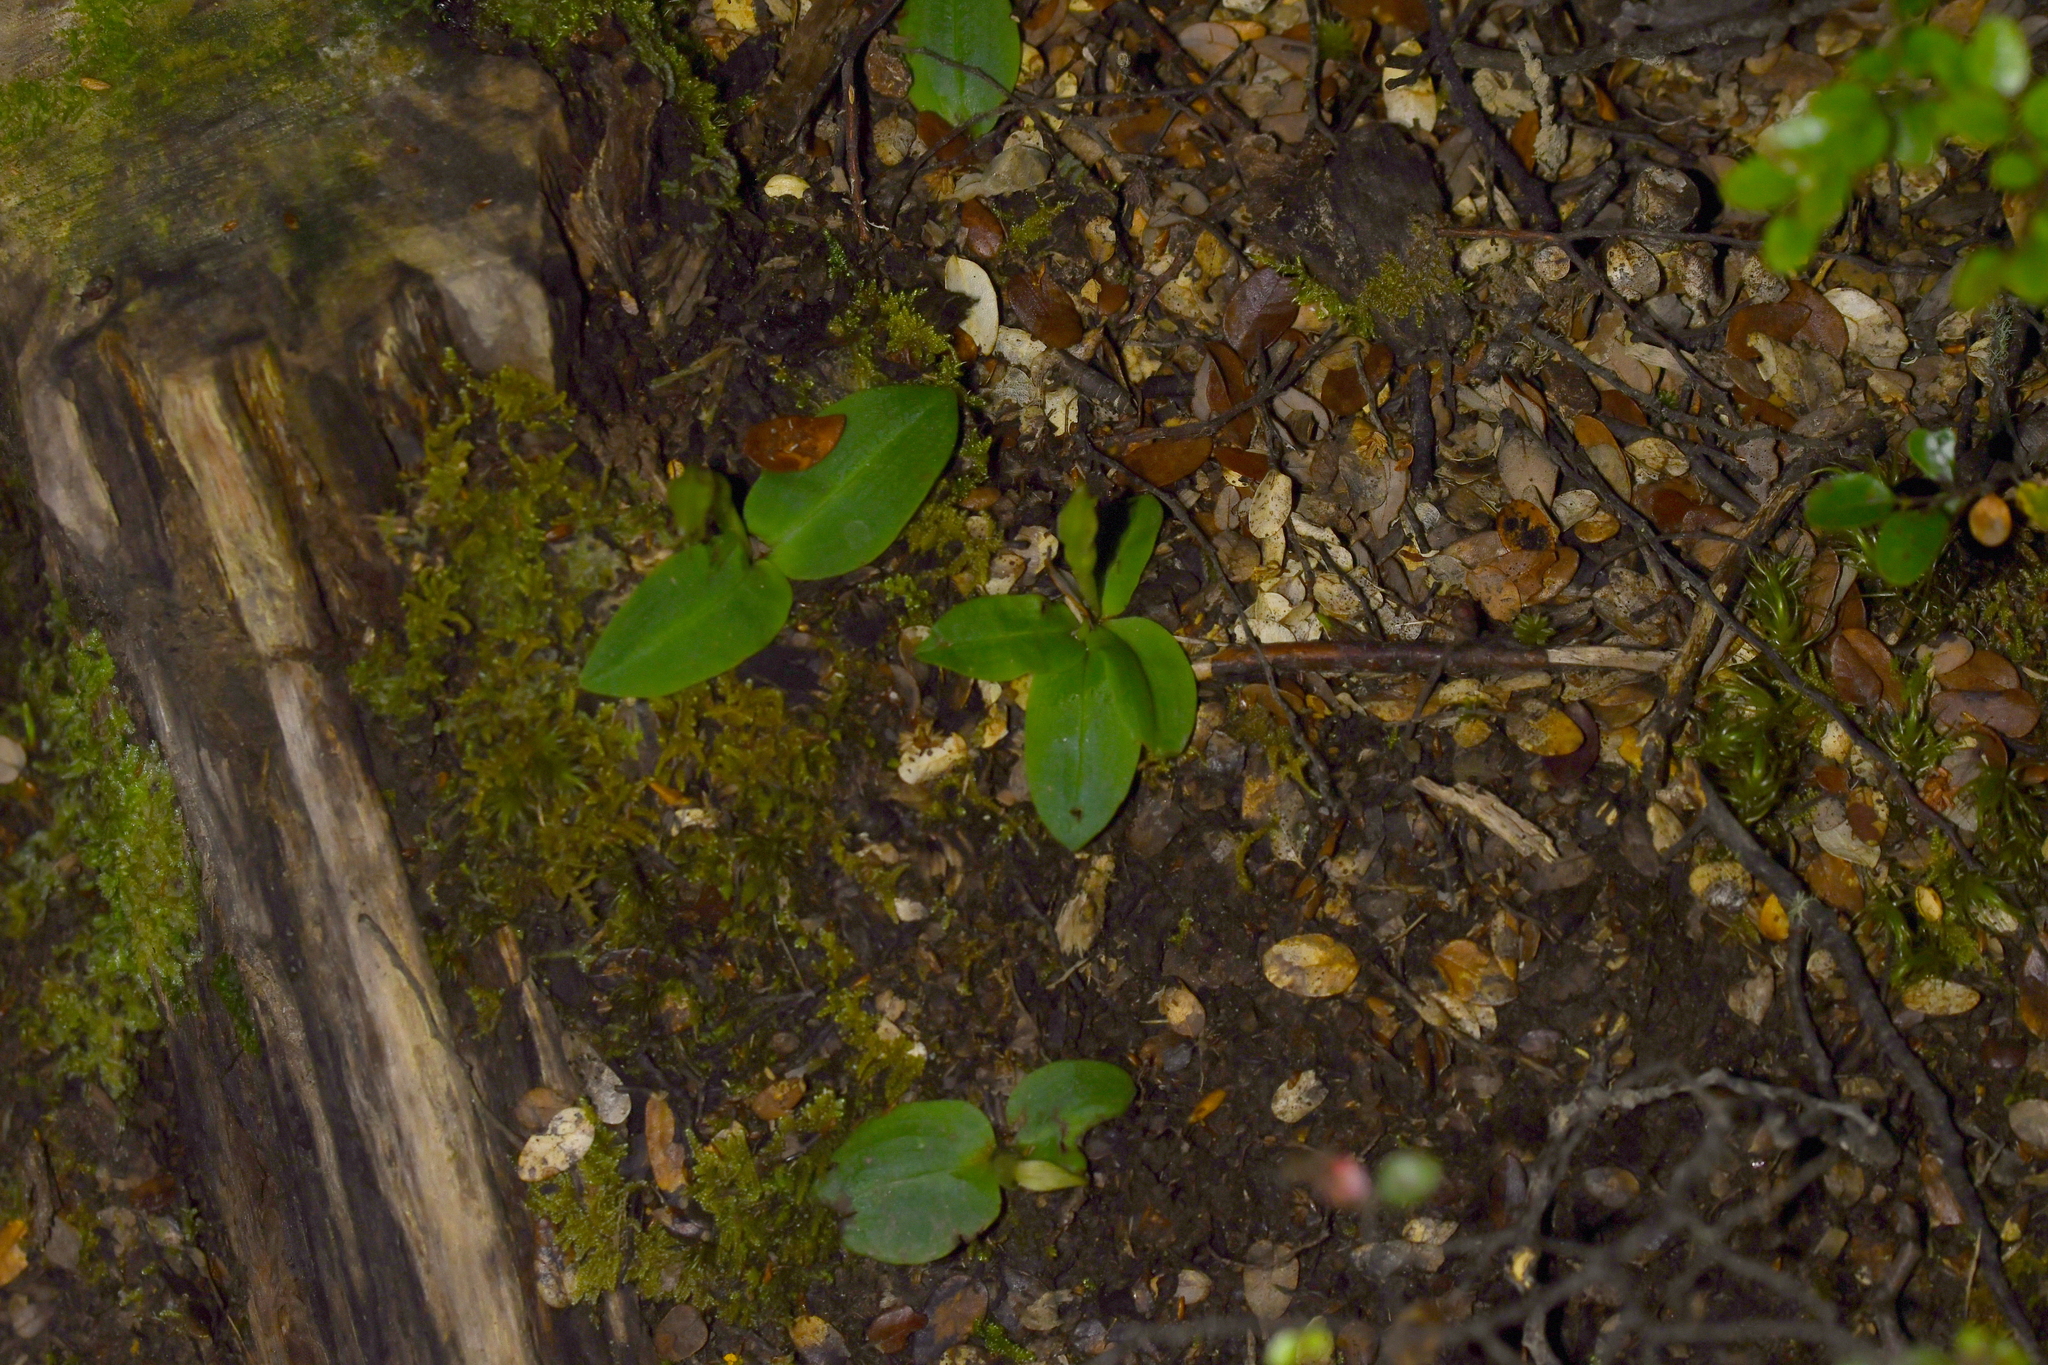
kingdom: Plantae
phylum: Tracheophyta
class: Liliopsida
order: Asparagales
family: Orchidaceae
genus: Chiloglottis
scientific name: Chiloglottis cornuta
